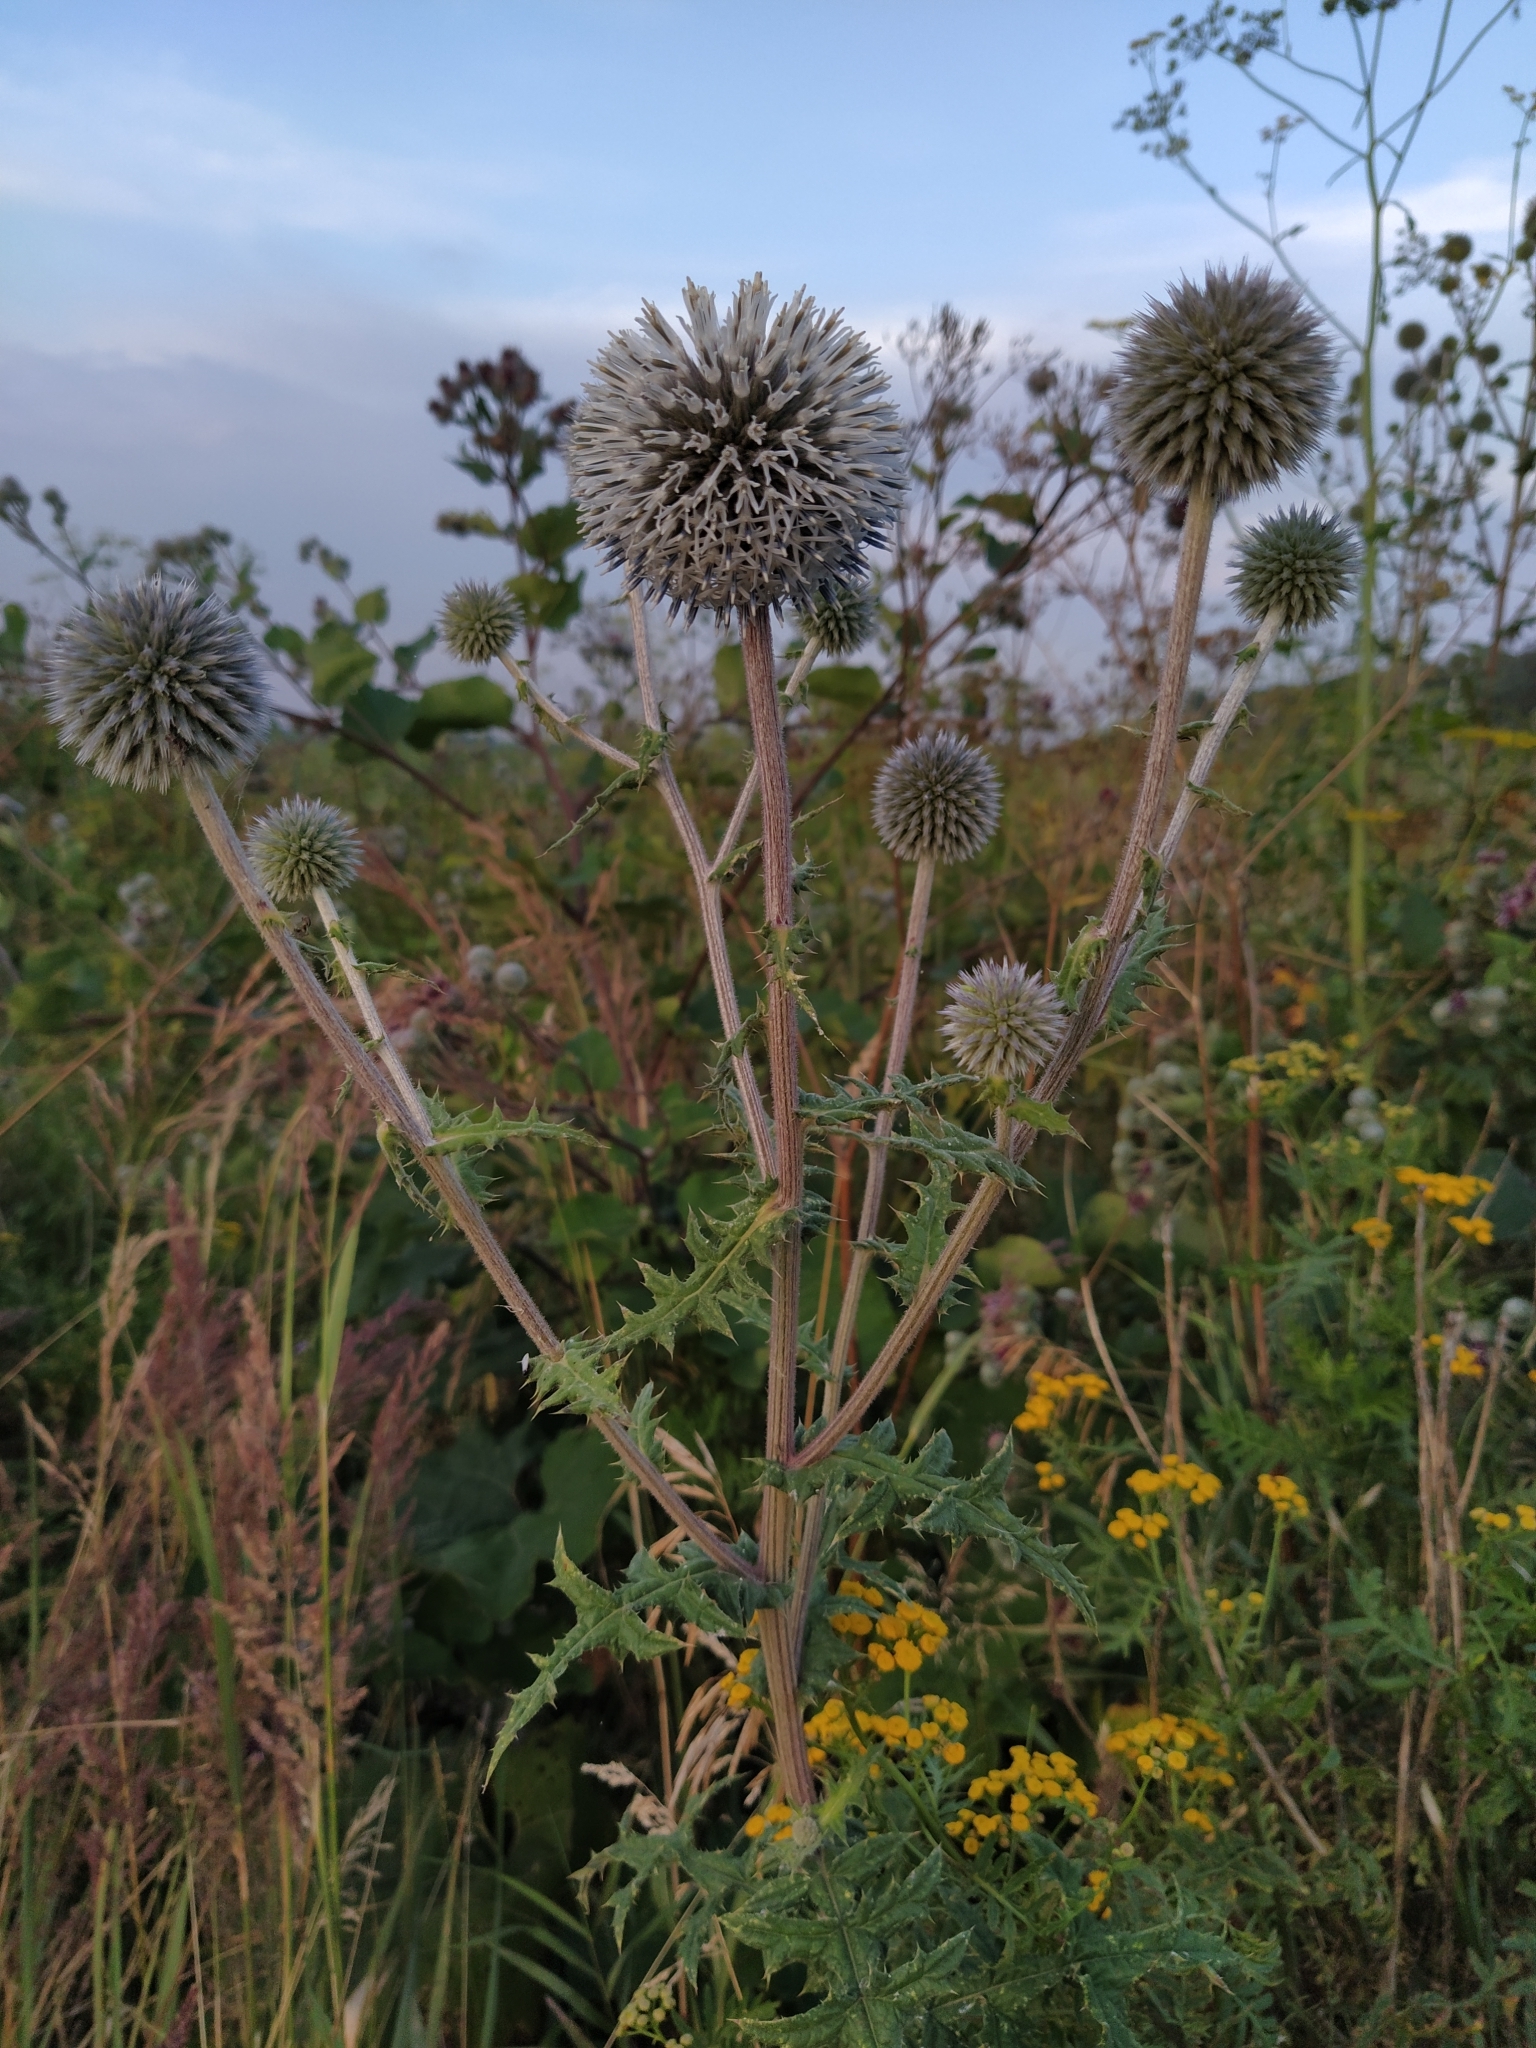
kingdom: Plantae
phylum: Tracheophyta
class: Magnoliopsida
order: Asterales
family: Asteraceae
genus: Echinops
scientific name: Echinops sphaerocephalus
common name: Glandular globe-thistle
